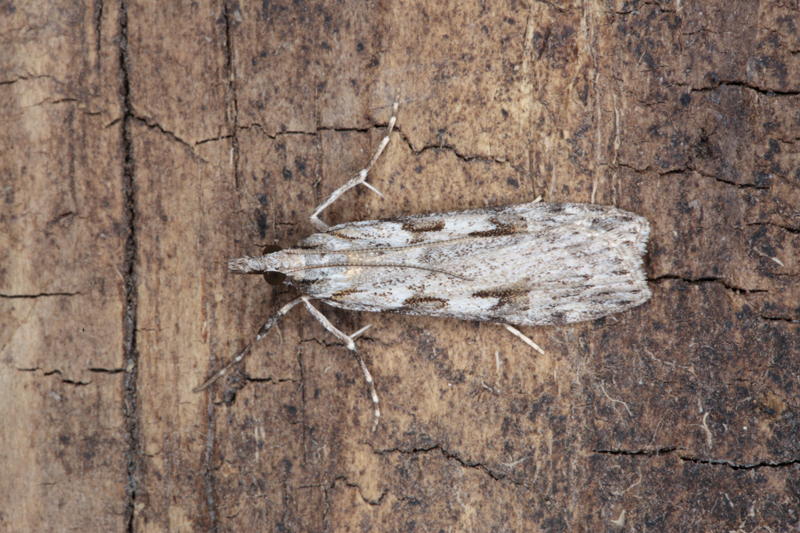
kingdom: Animalia
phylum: Arthropoda
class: Insecta
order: Lepidoptera
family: Crambidae
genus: Scoparia
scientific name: Scoparia halopis
